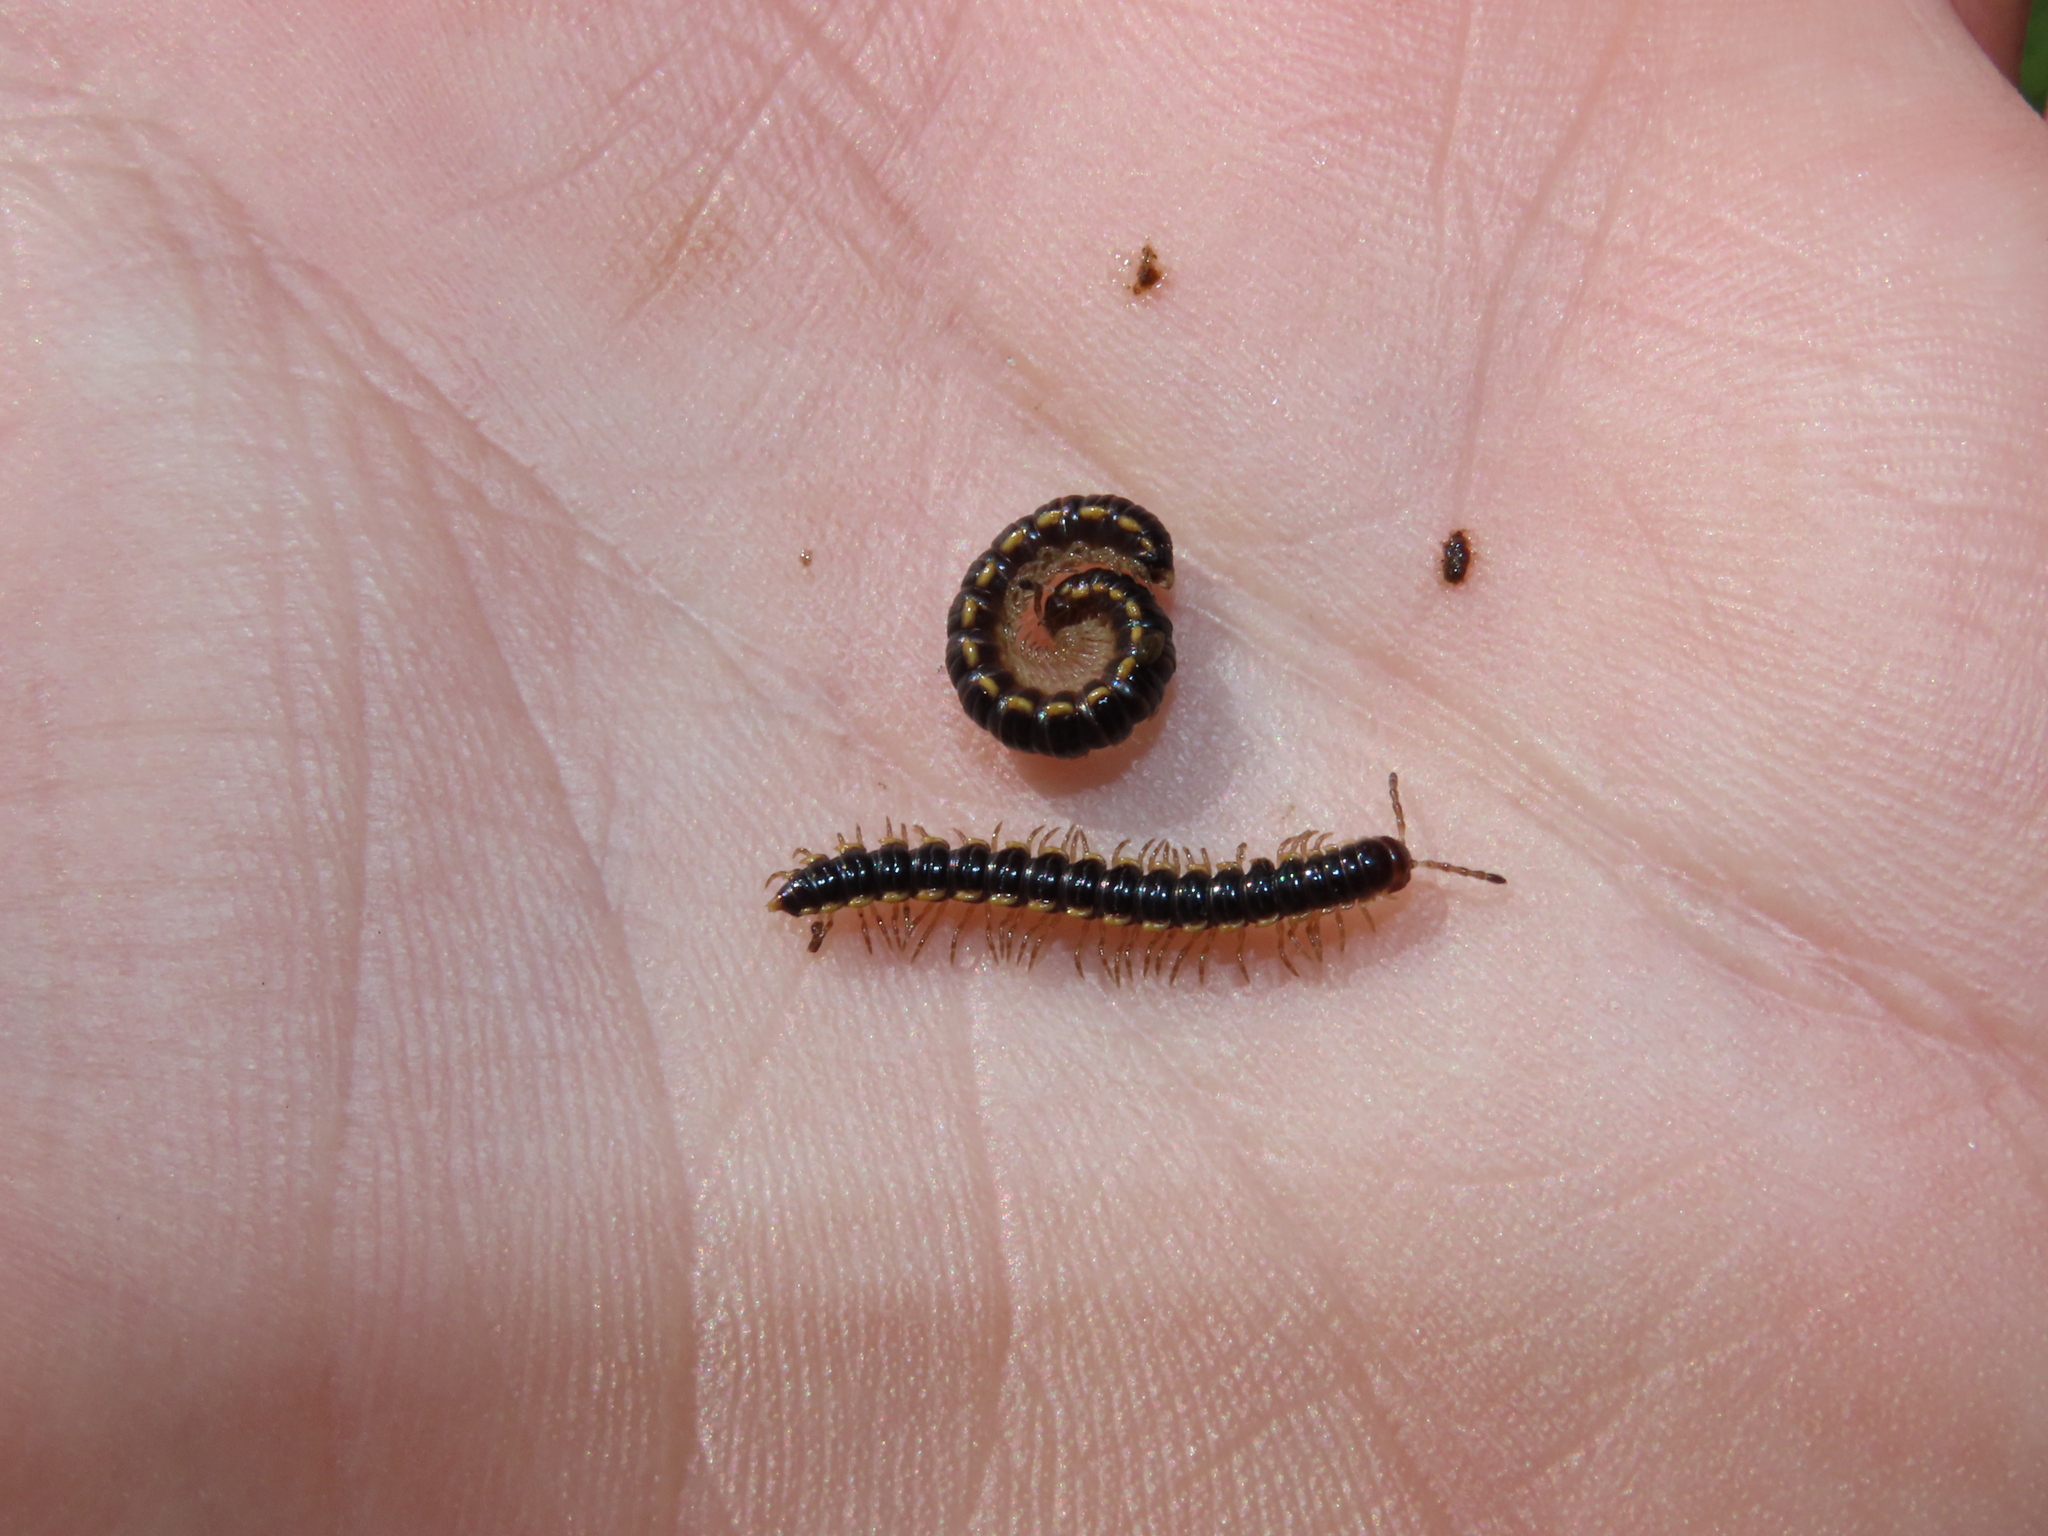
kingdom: Animalia
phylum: Arthropoda
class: Diplopoda
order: Polydesmida
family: Paradoxosomatidae
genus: Orthomorpha
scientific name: Orthomorpha coarctata
